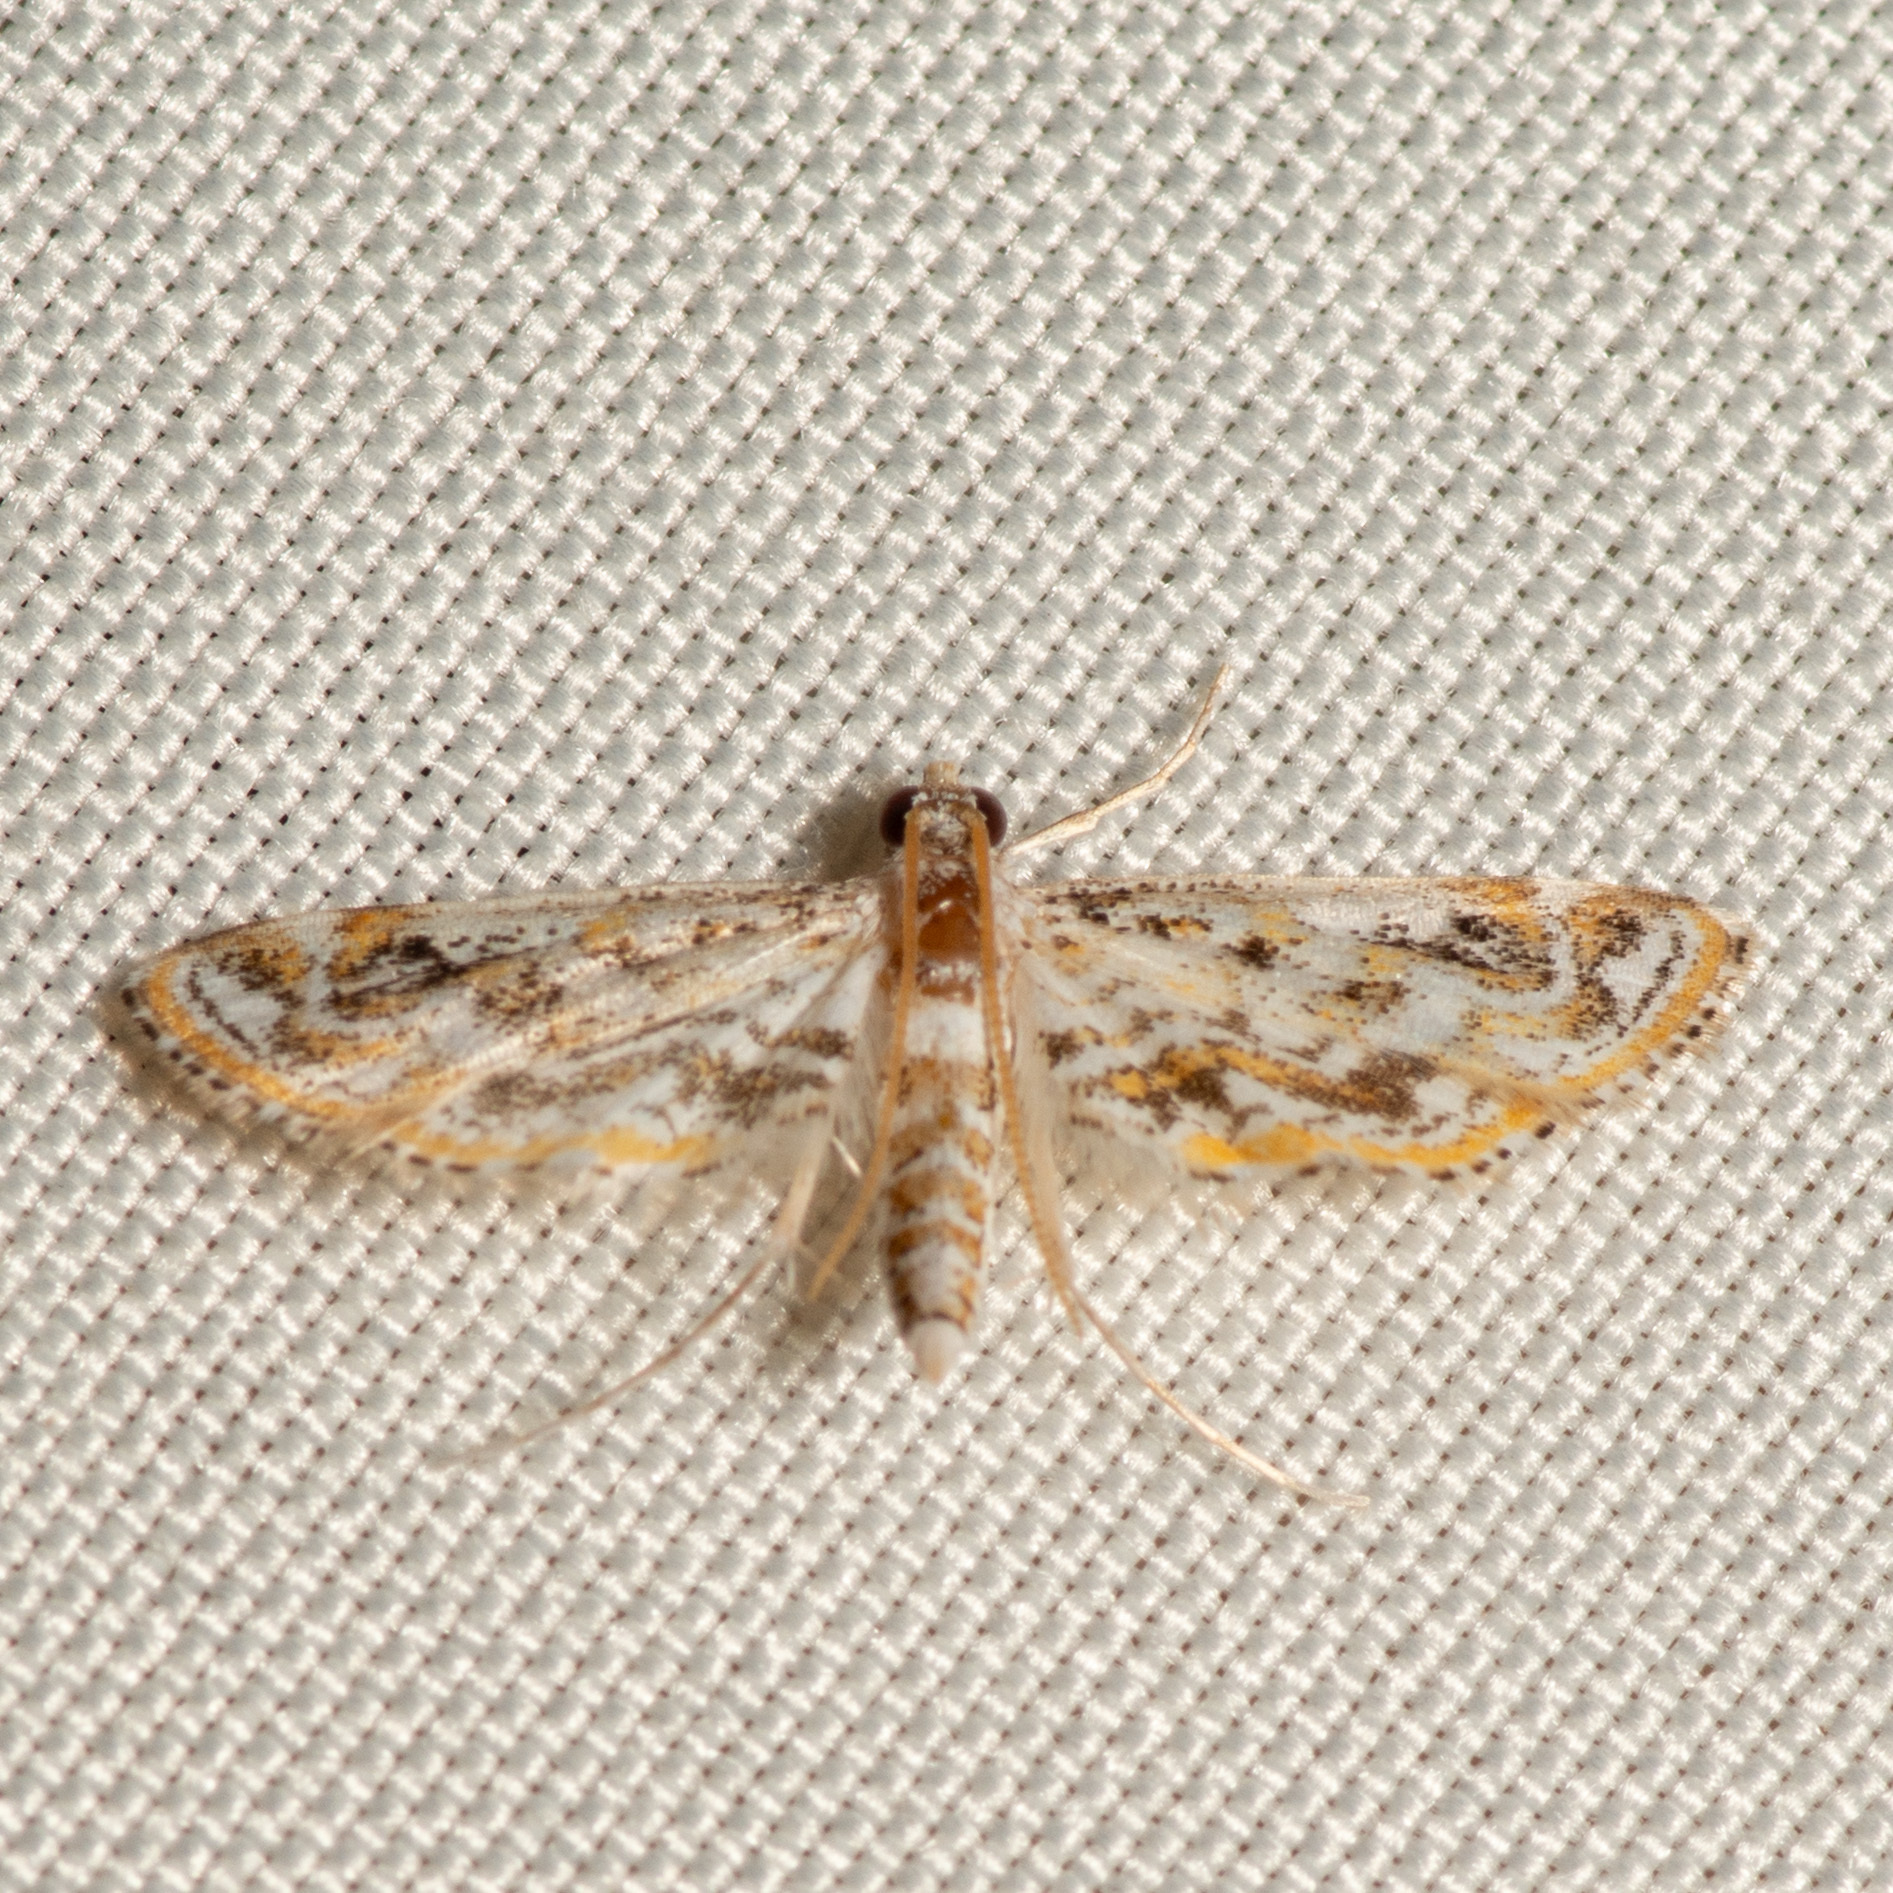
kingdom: Animalia
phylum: Arthropoda
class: Insecta
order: Lepidoptera
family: Crambidae
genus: Parapoynx
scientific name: Parapoynx diminutalis
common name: Hydrilla leafcutter
